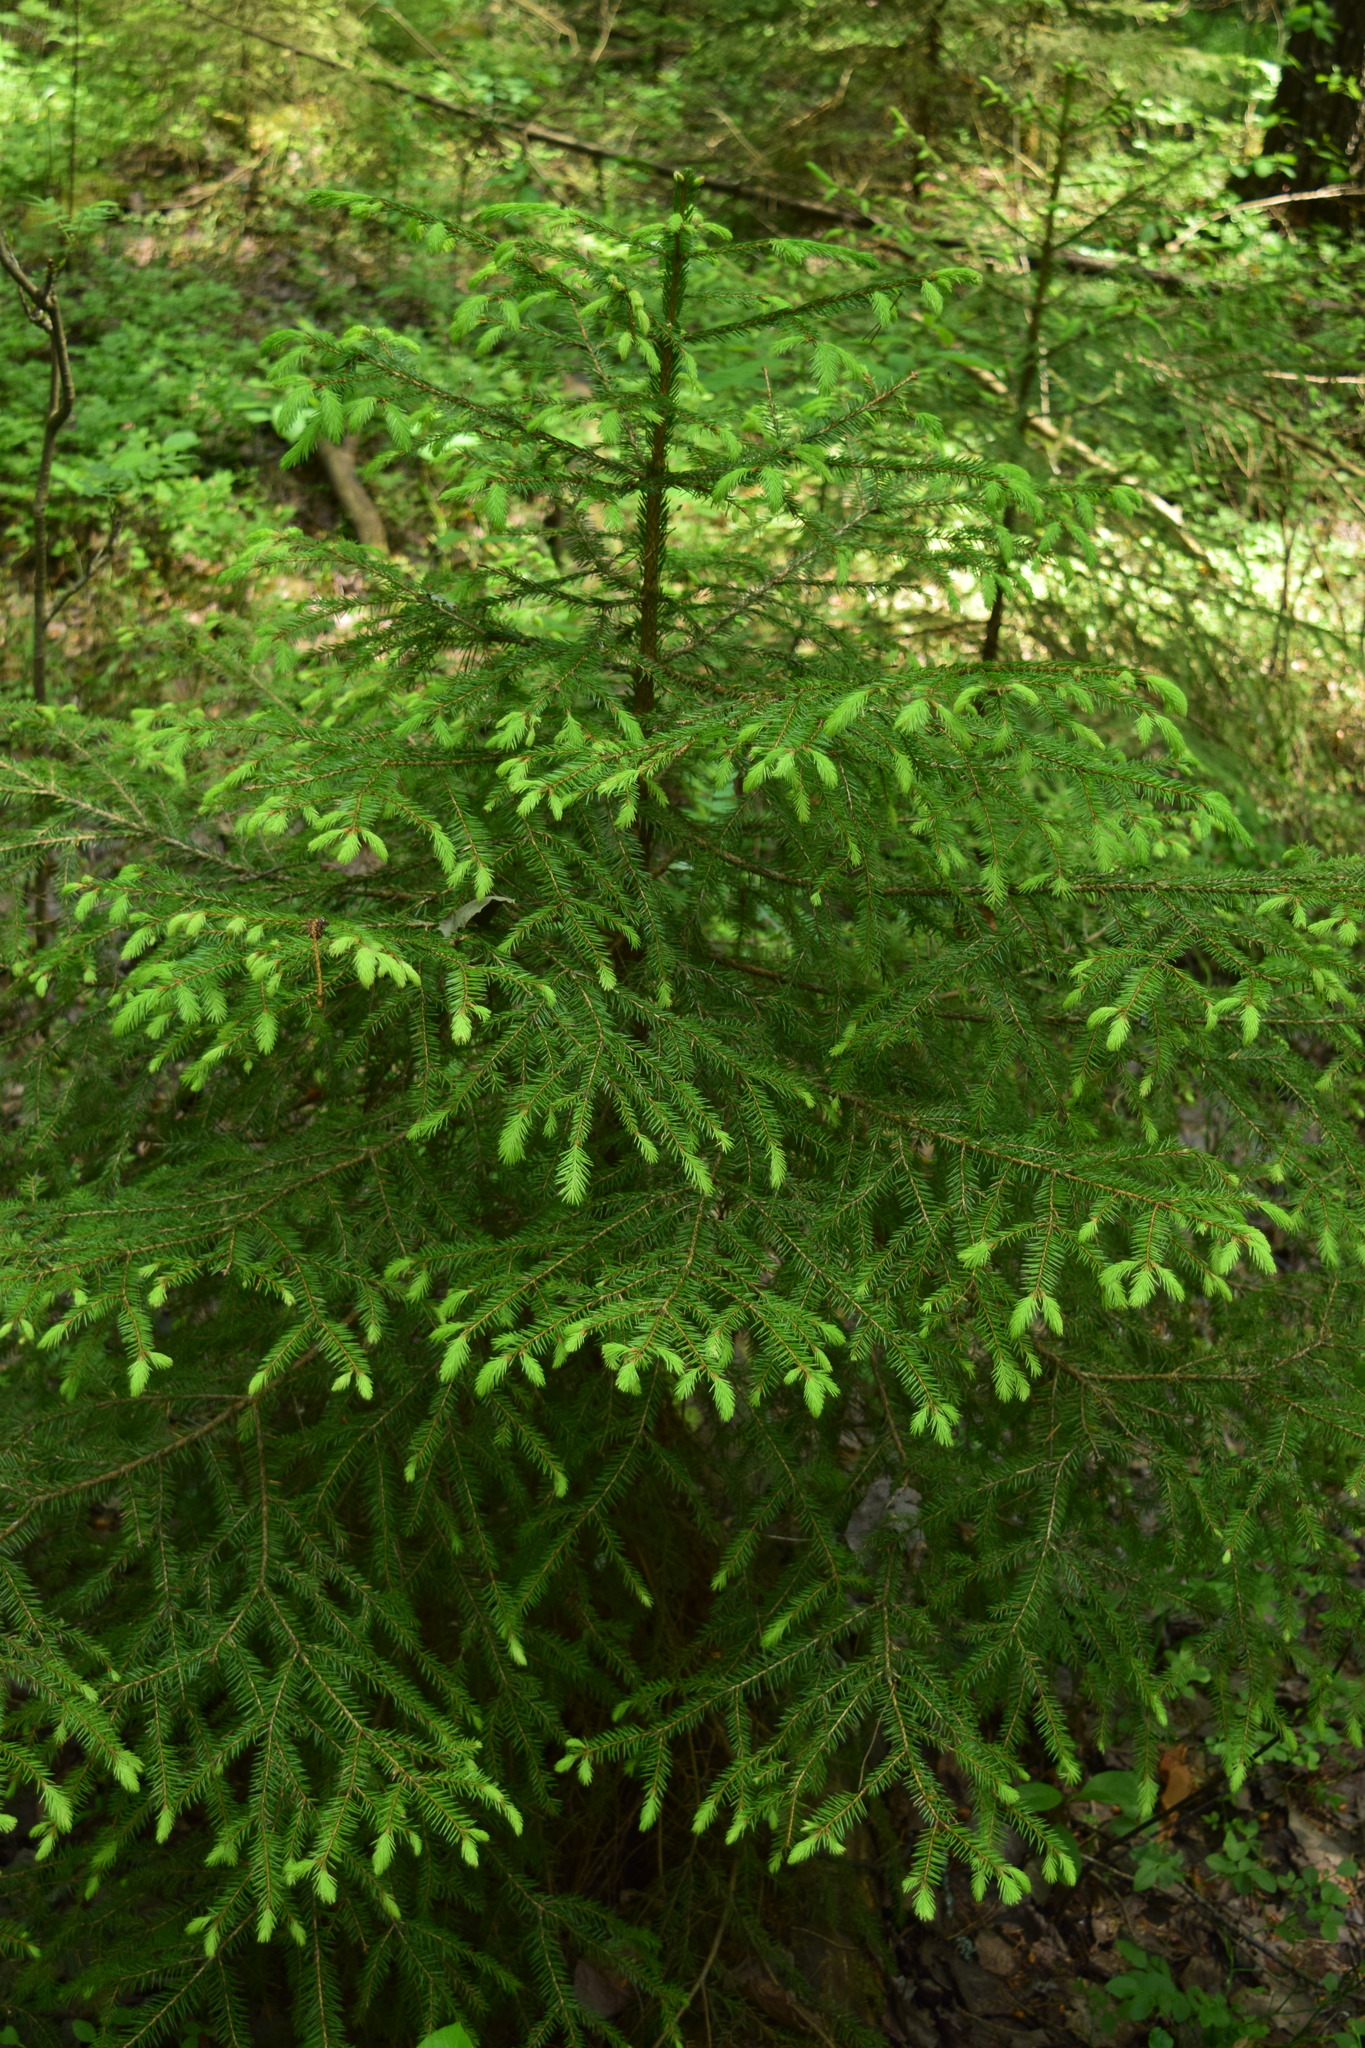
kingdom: Plantae
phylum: Tracheophyta
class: Pinopsida
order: Pinales
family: Pinaceae
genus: Picea
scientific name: Picea abies
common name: Norway spruce
